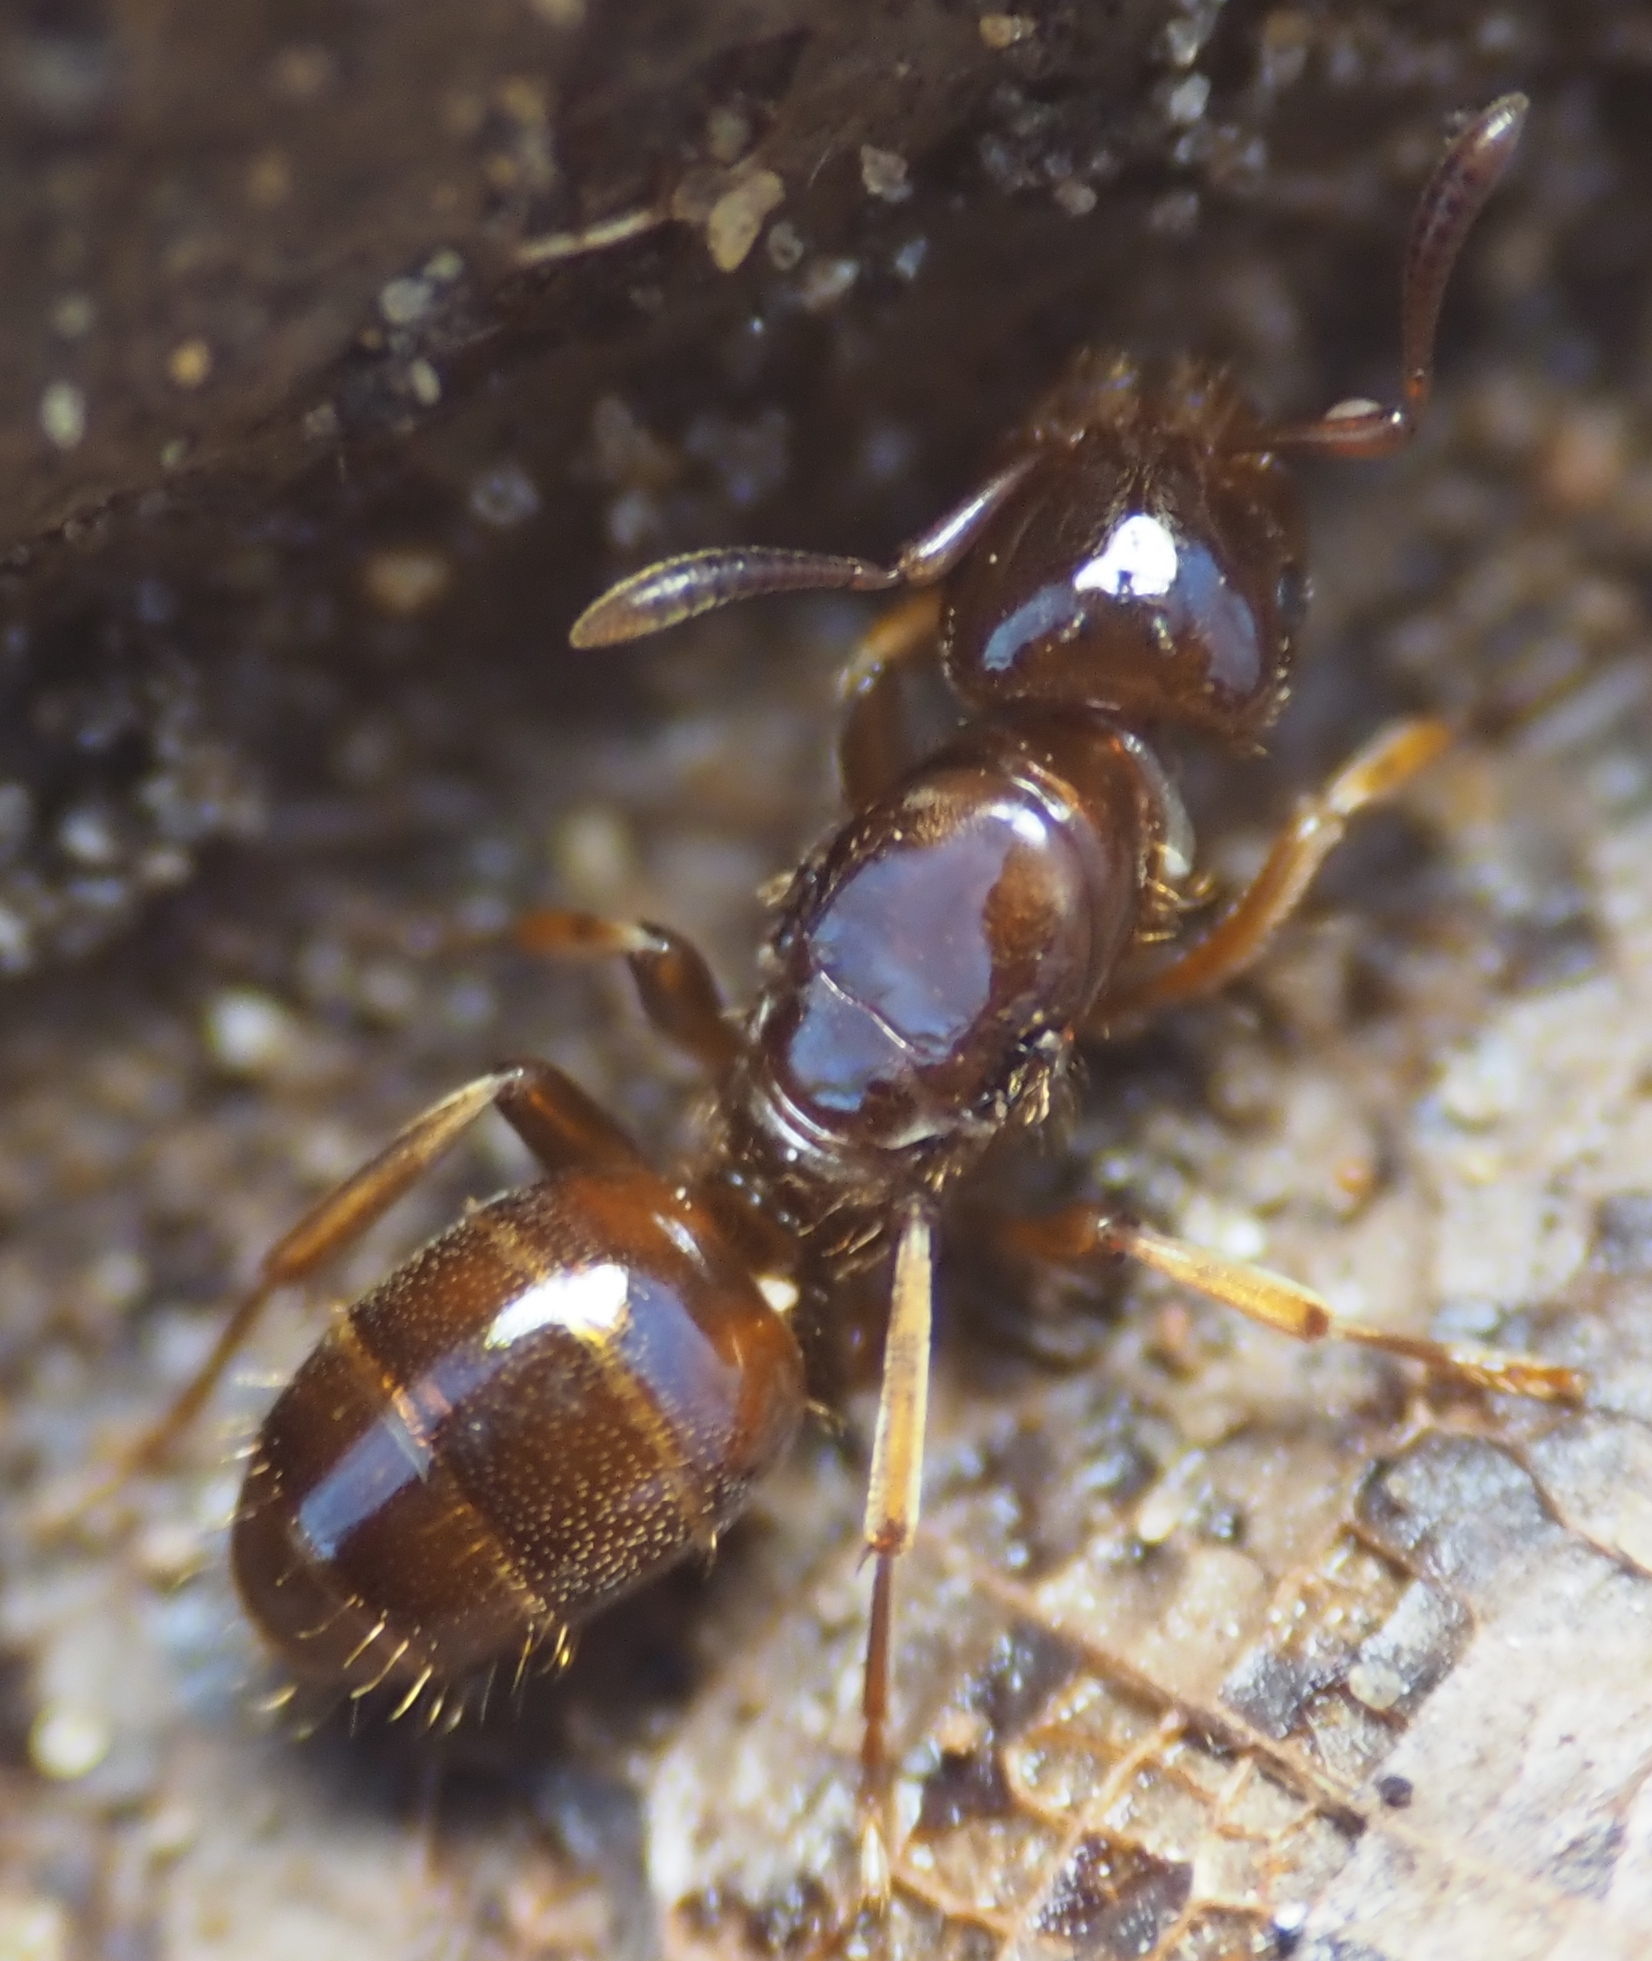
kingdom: Animalia
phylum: Arthropoda
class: Insecta
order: Hymenoptera
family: Formicidae
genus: Lasius
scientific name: Lasius claviger
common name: Common citronella ant
